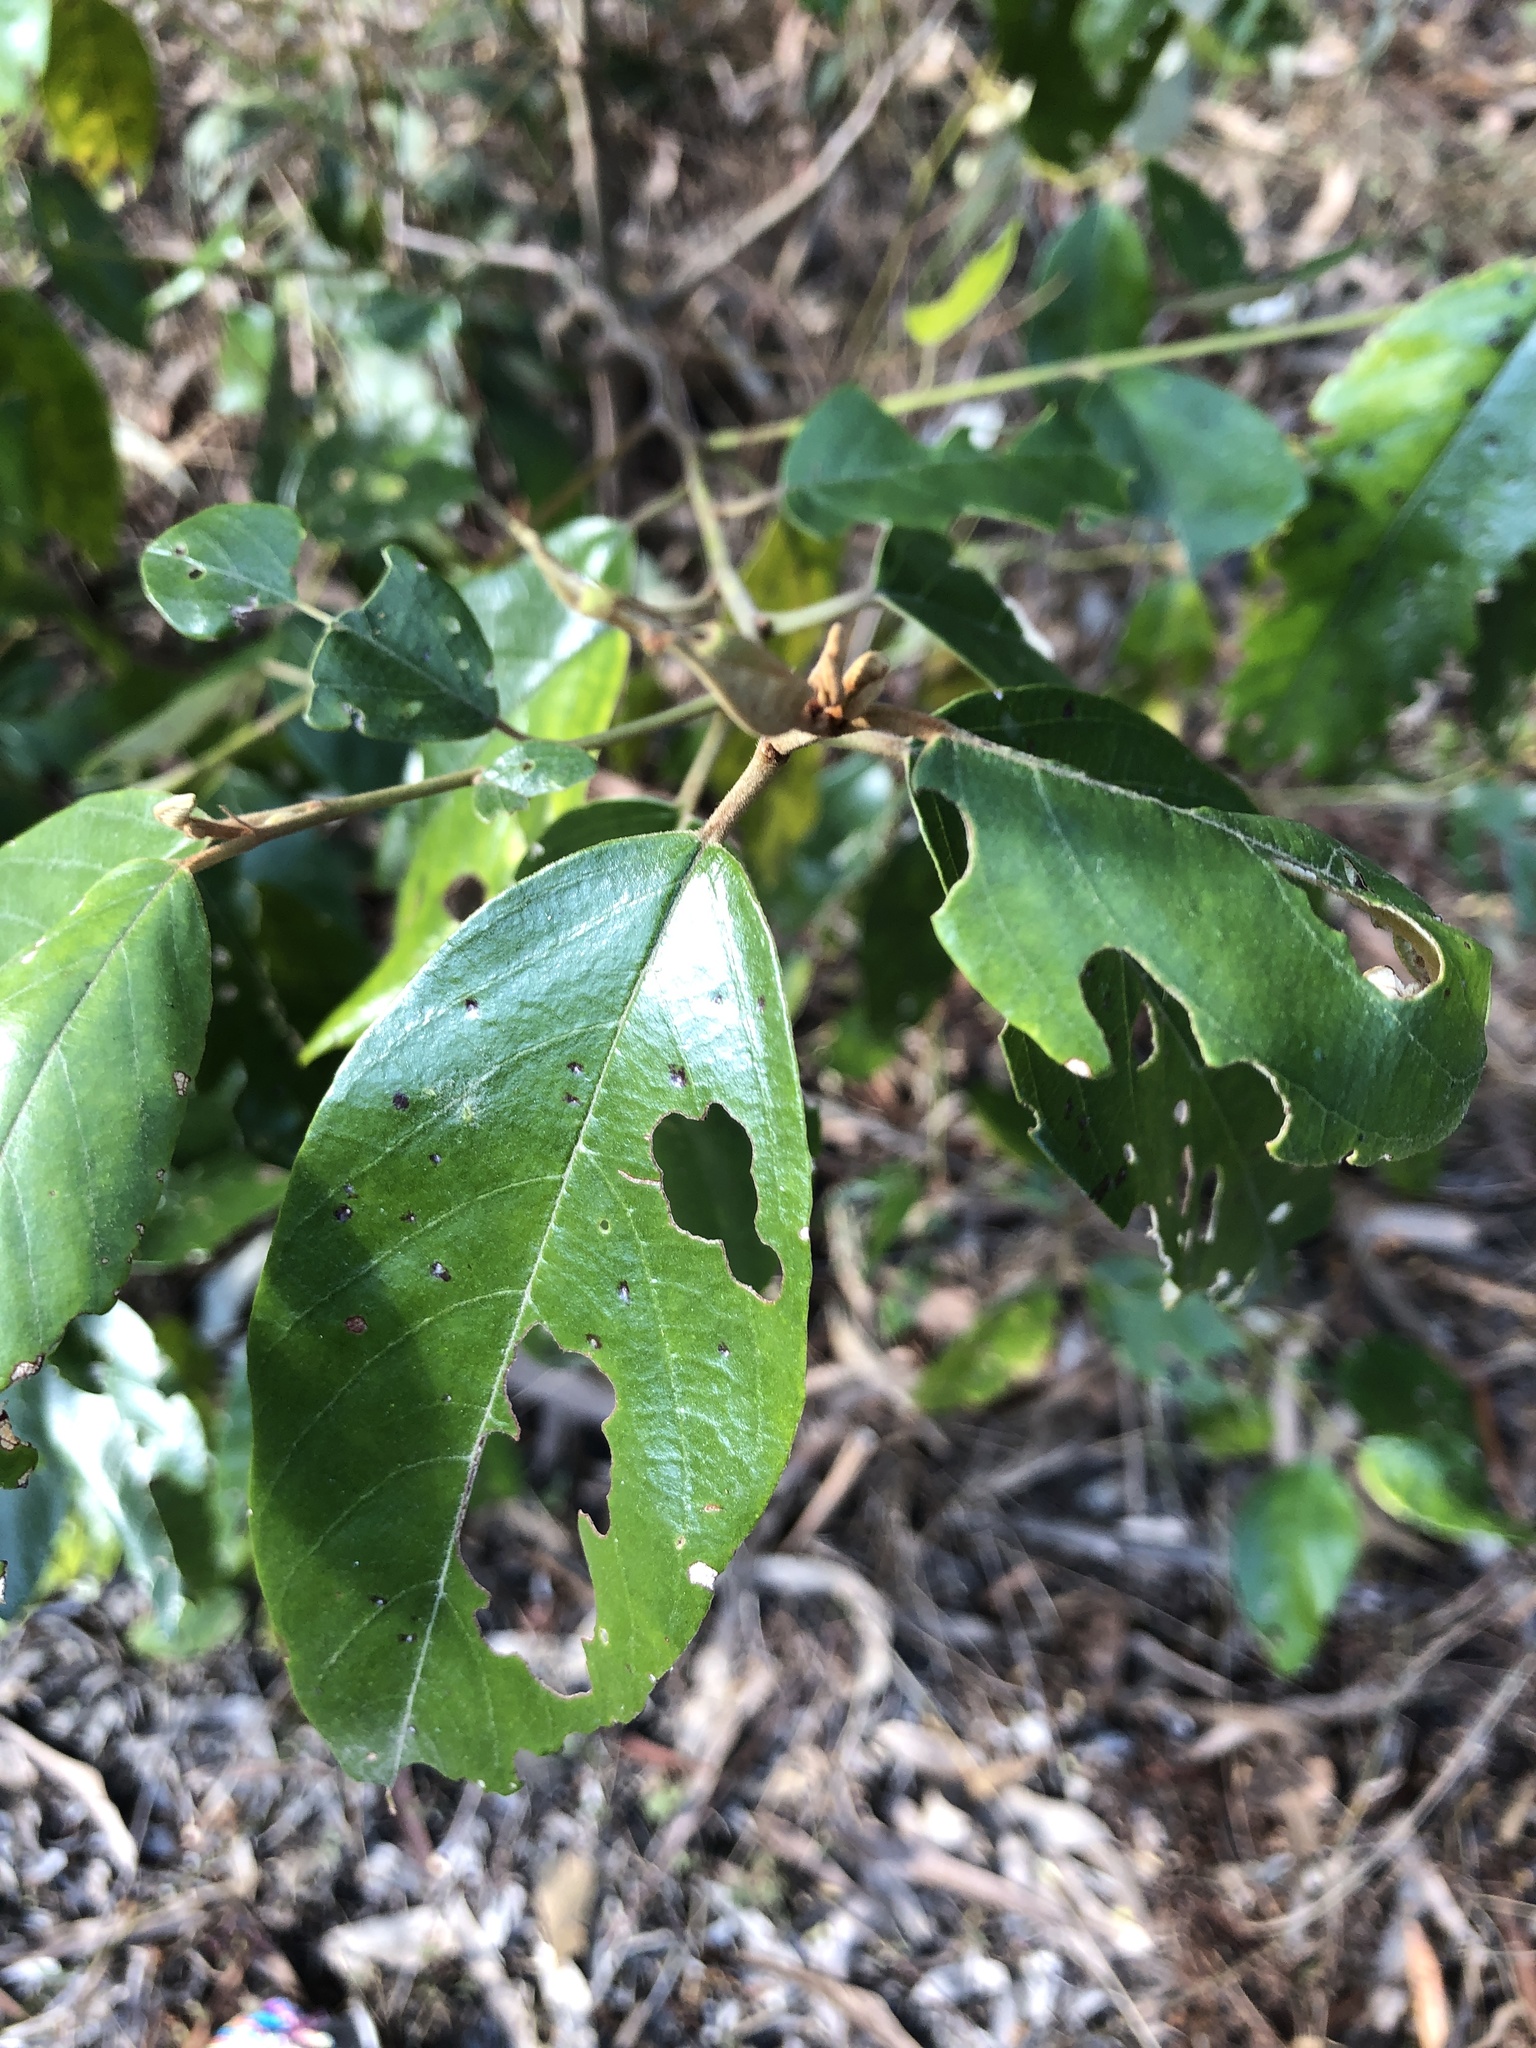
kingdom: Plantae
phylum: Tracheophyta
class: Magnoliopsida
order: Rosales
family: Rhamnaceae
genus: Alphitonia
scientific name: Alphitonia excelsa
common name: Red ash
